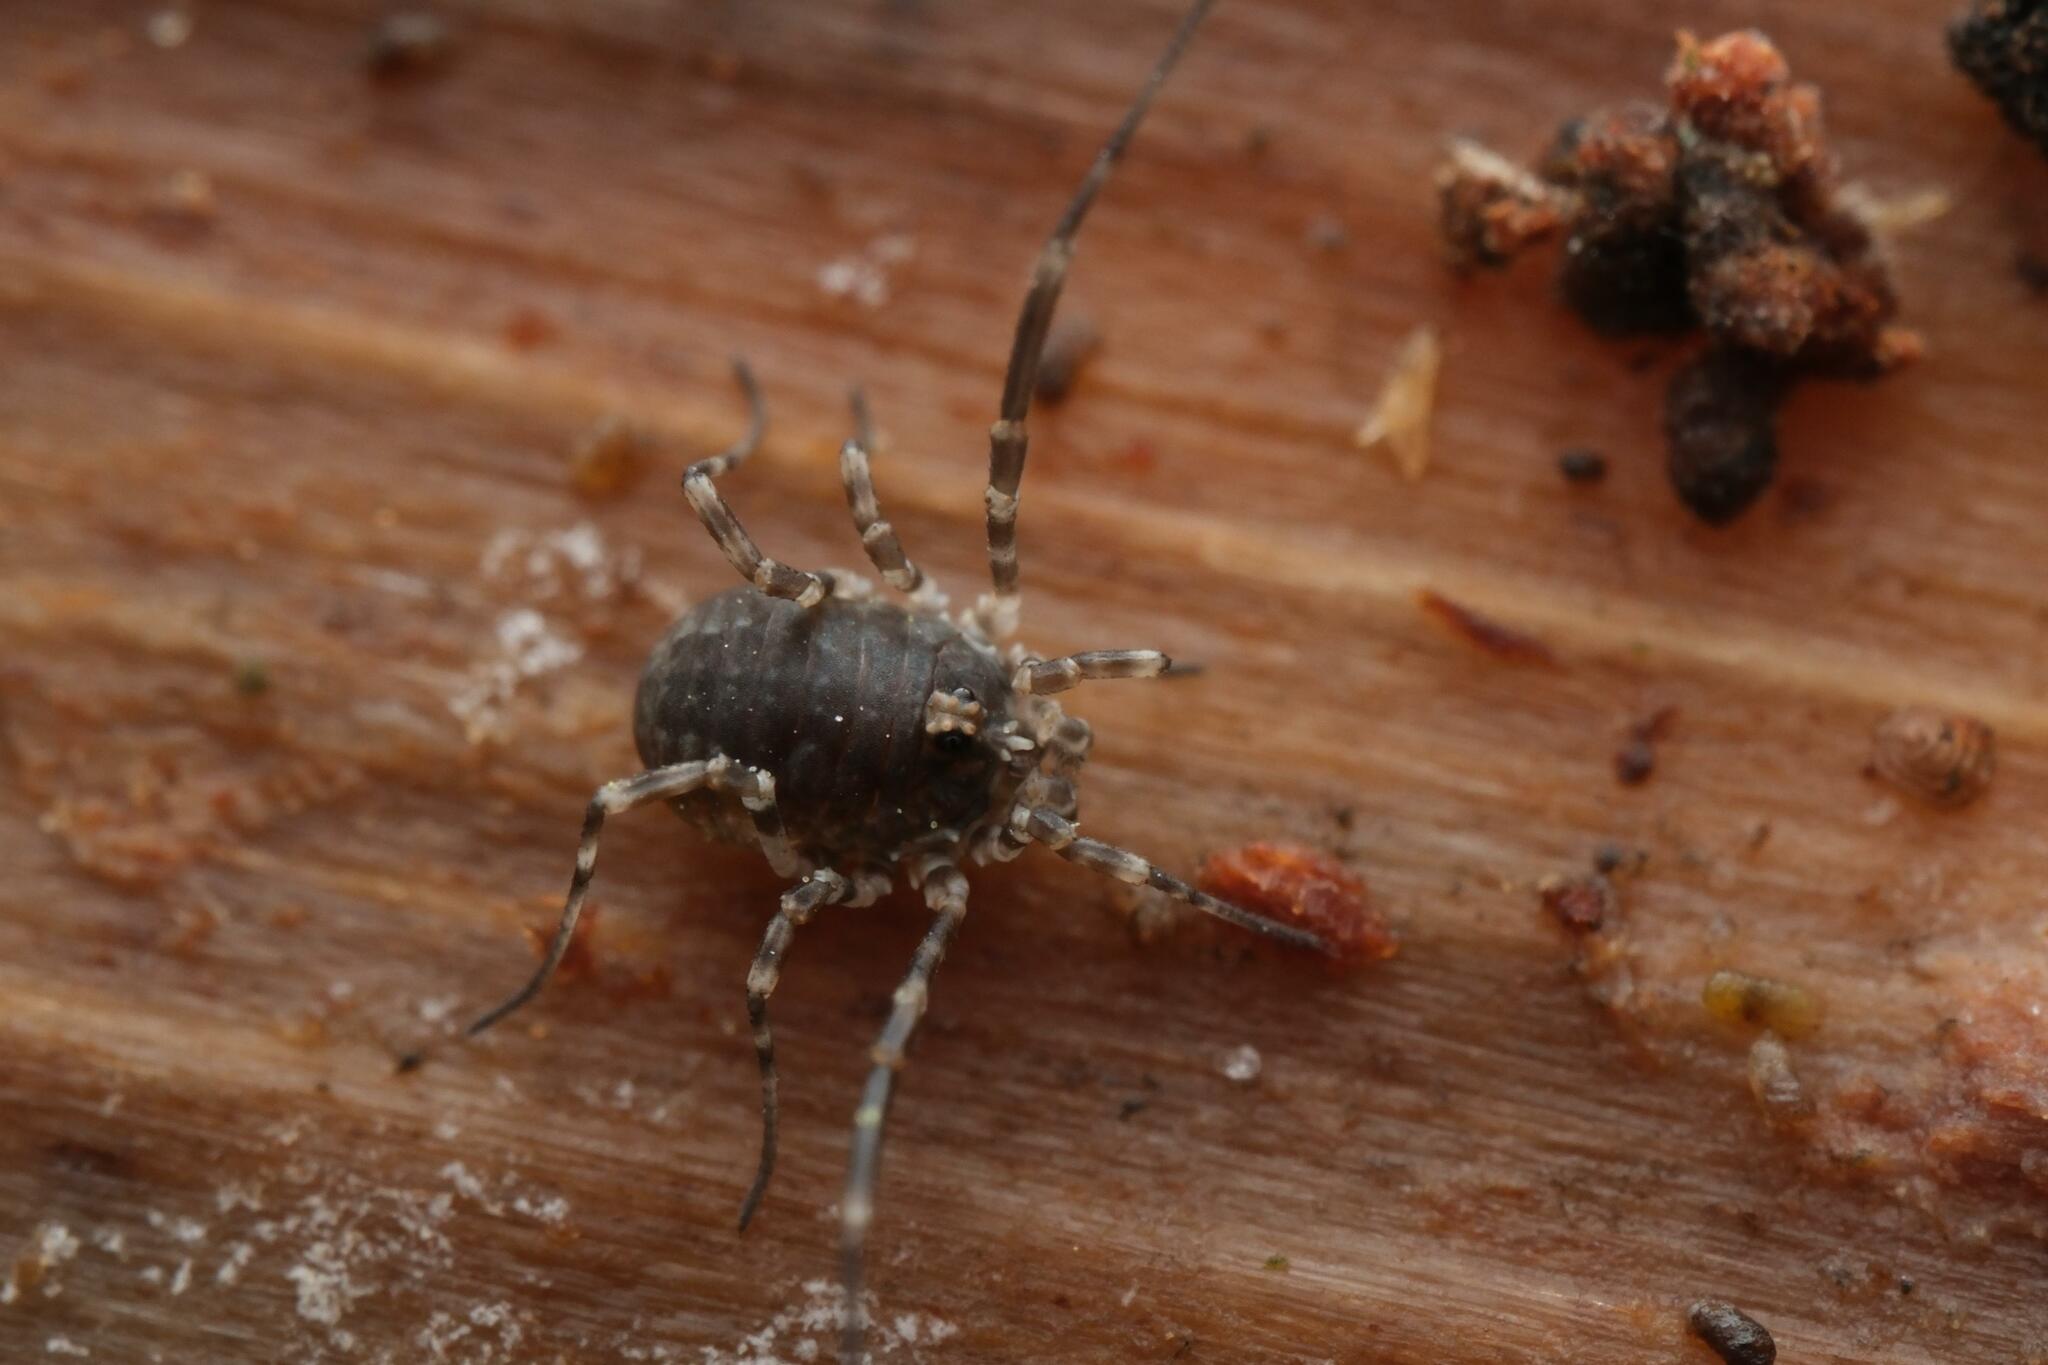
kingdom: Animalia
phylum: Arthropoda
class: Arachnida
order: Opiliones
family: Phalangiidae
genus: Lacinius
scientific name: Lacinius dentiger
